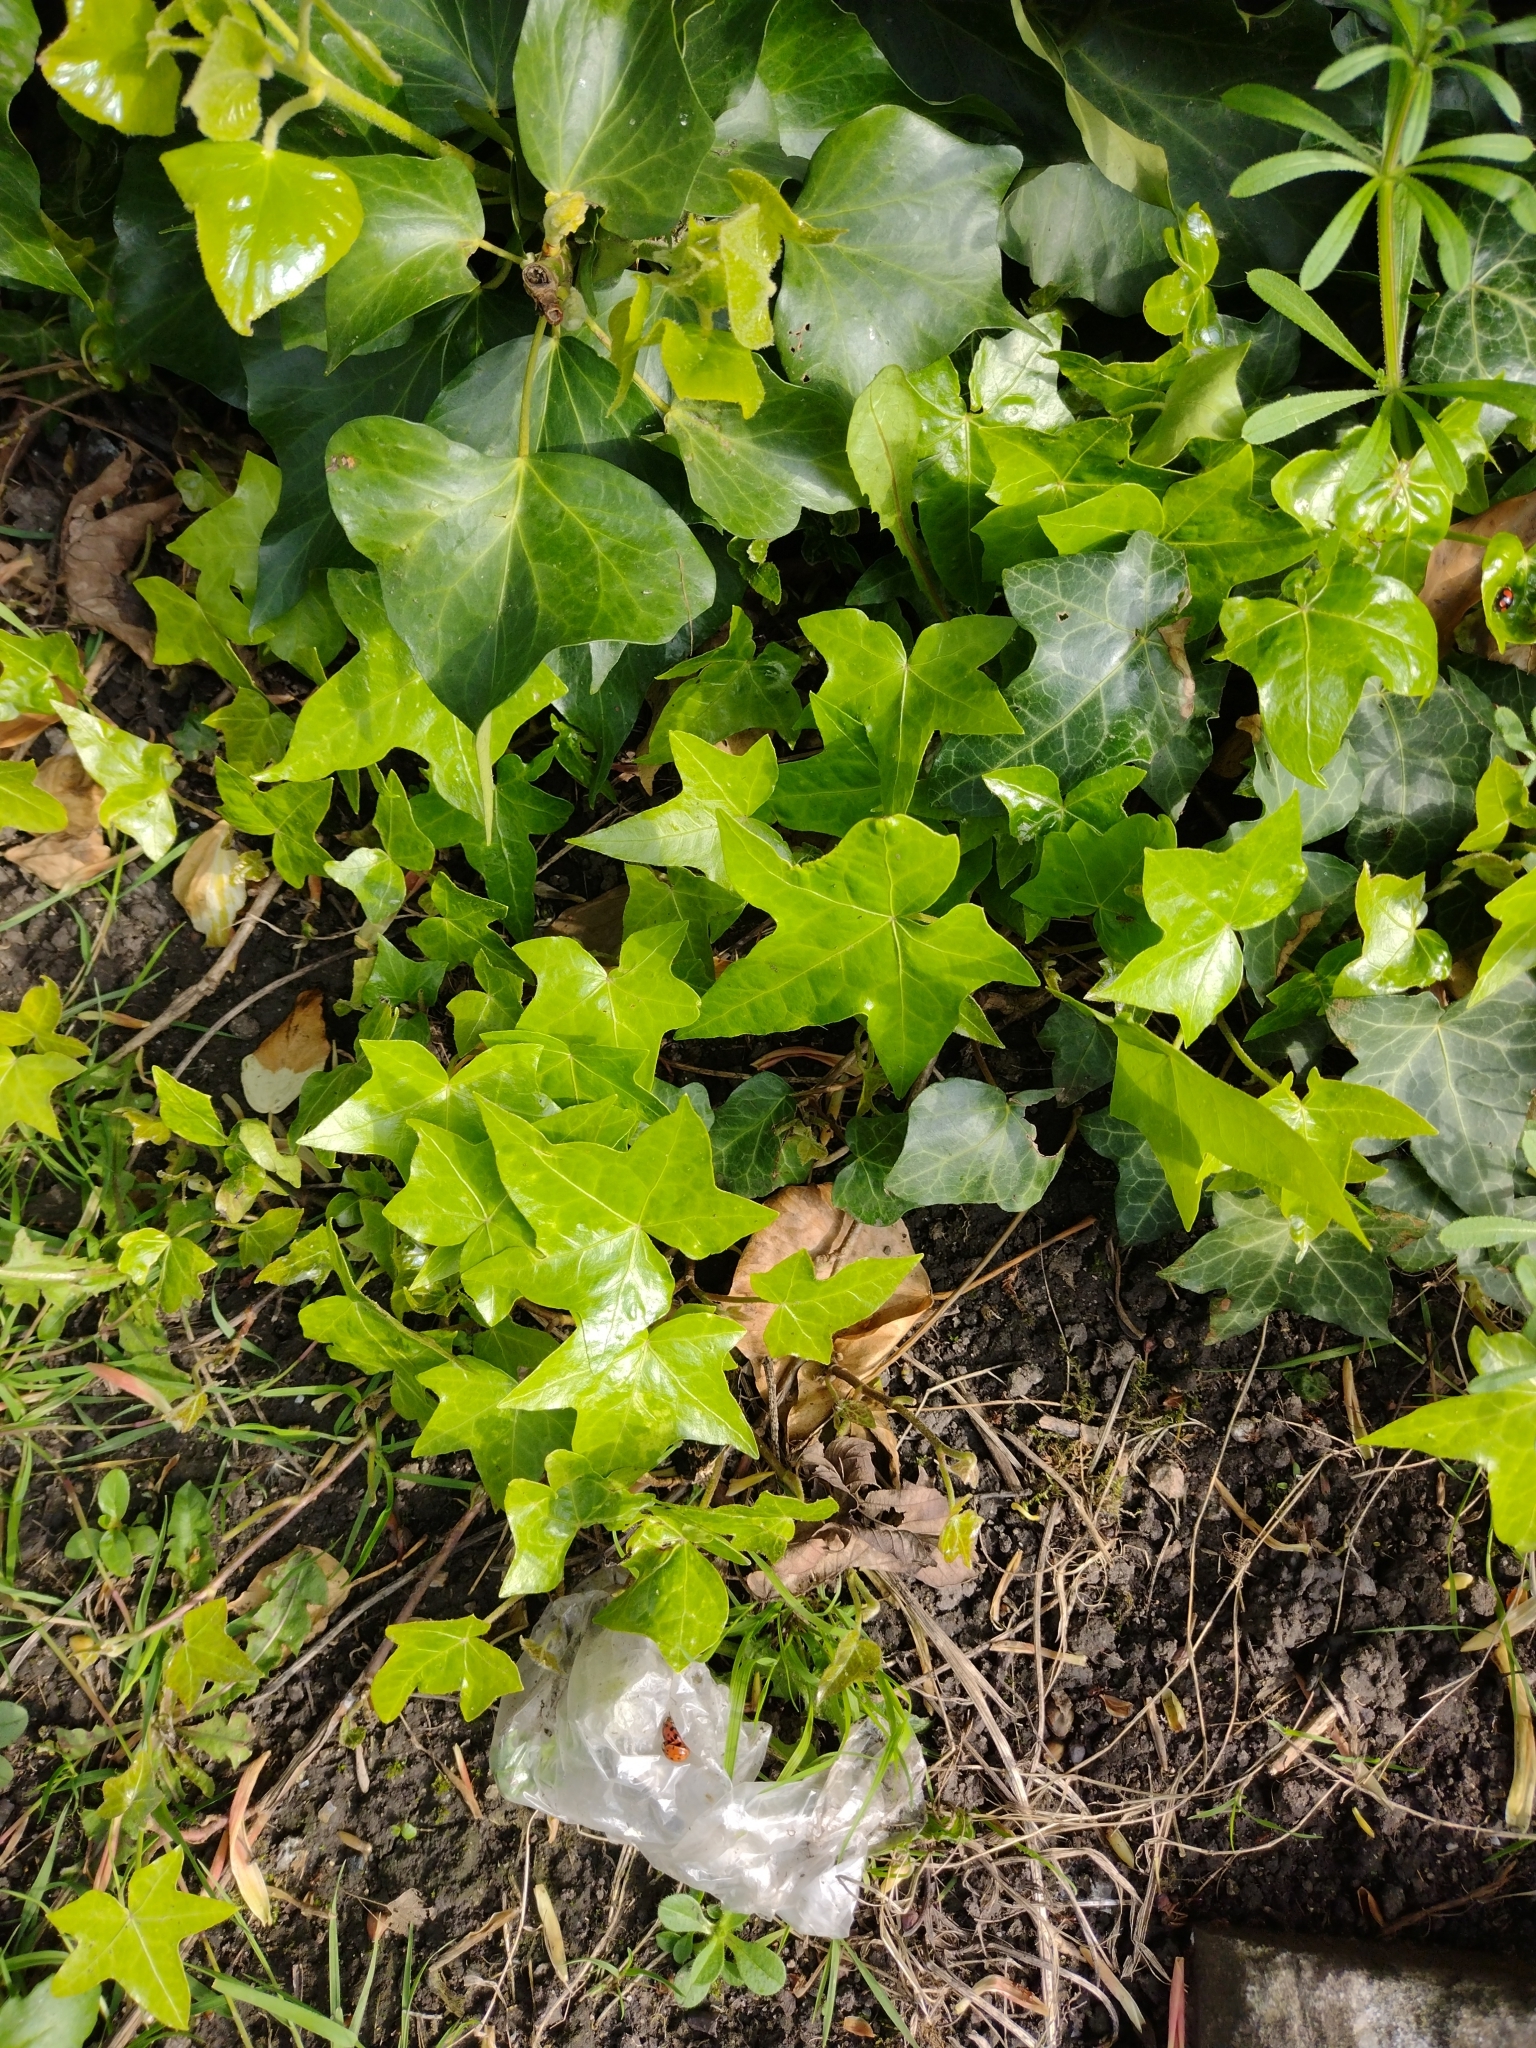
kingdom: Plantae
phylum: Tracheophyta
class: Magnoliopsida
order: Apiales
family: Araliaceae
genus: Hedera
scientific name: Hedera helix
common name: Ivy
